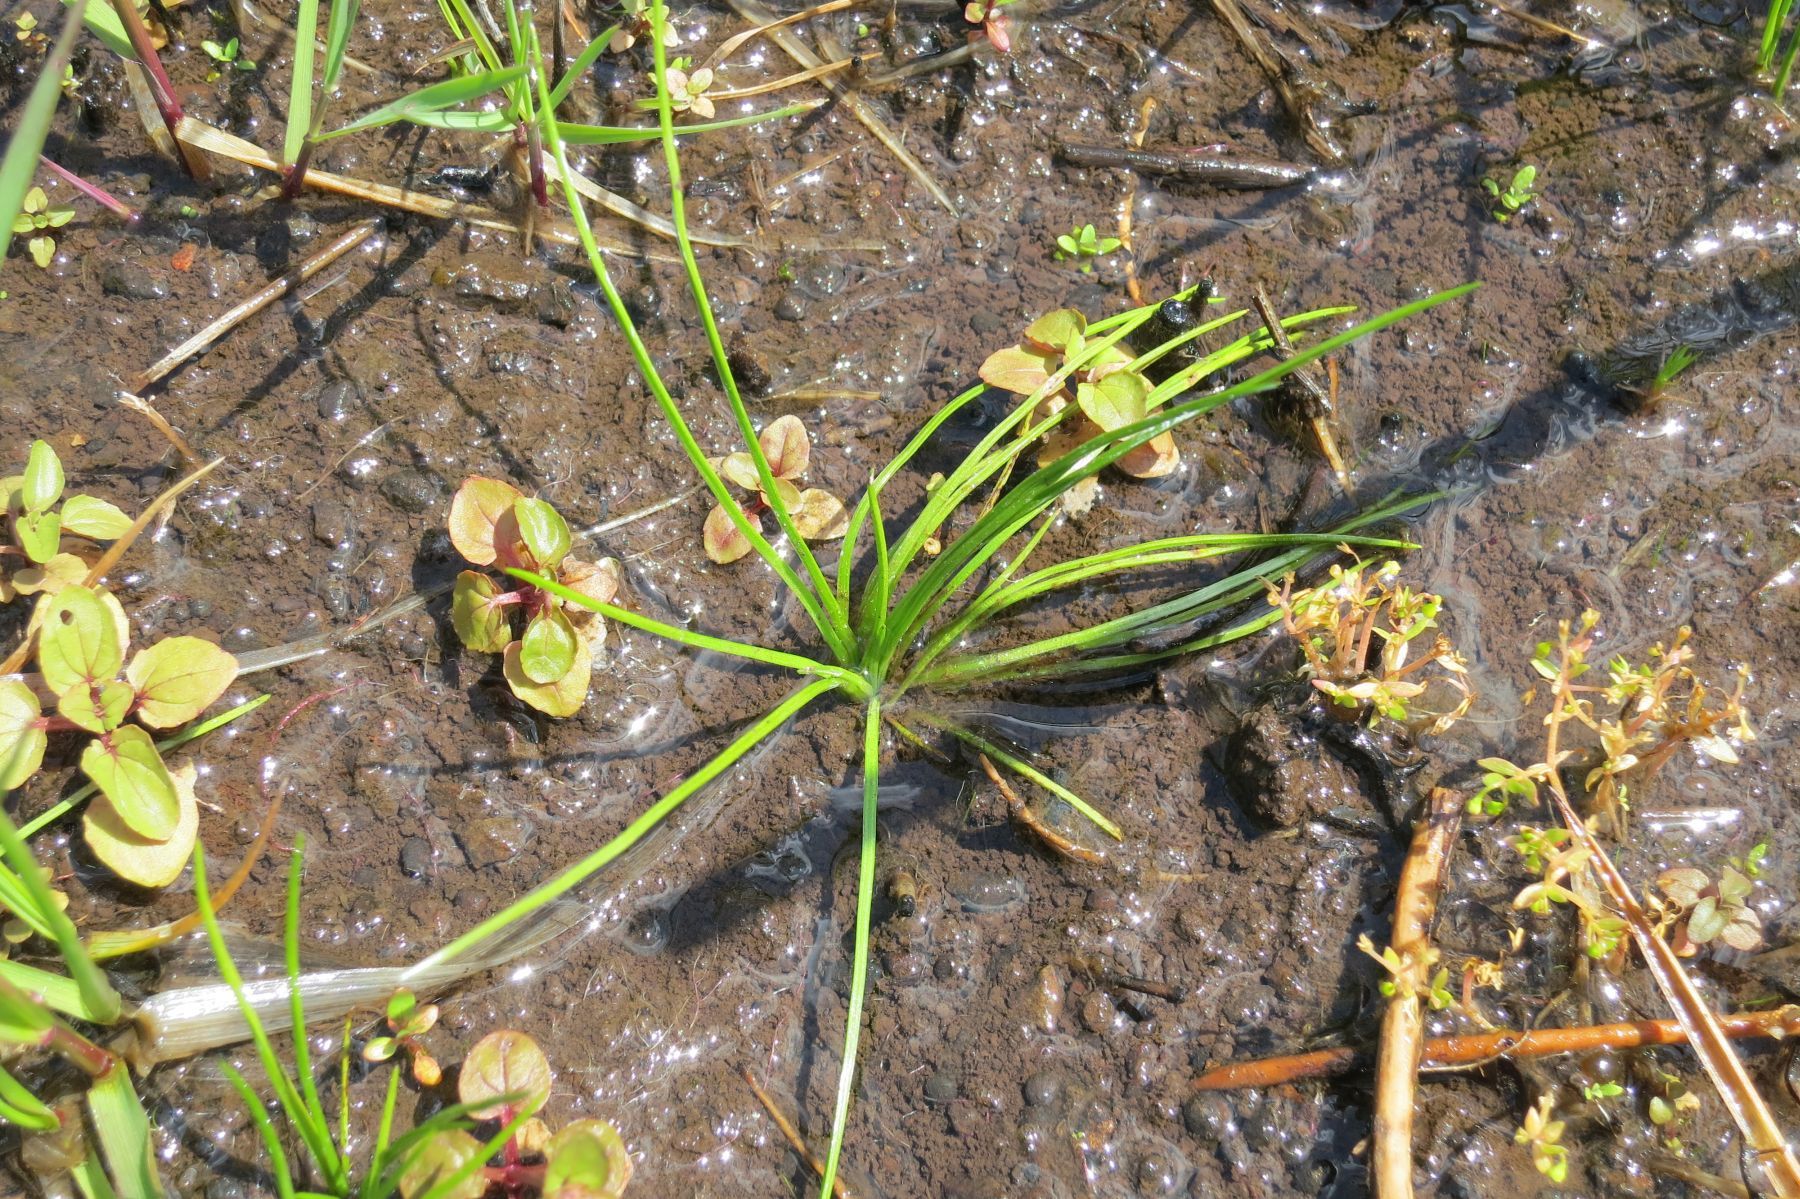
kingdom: Plantae
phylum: Tracheophyta
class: Lycopodiopsida
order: Isoetales
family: Isoetaceae
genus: Isoetes
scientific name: Isoetes nuttallii
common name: Nuttall's quillwort
